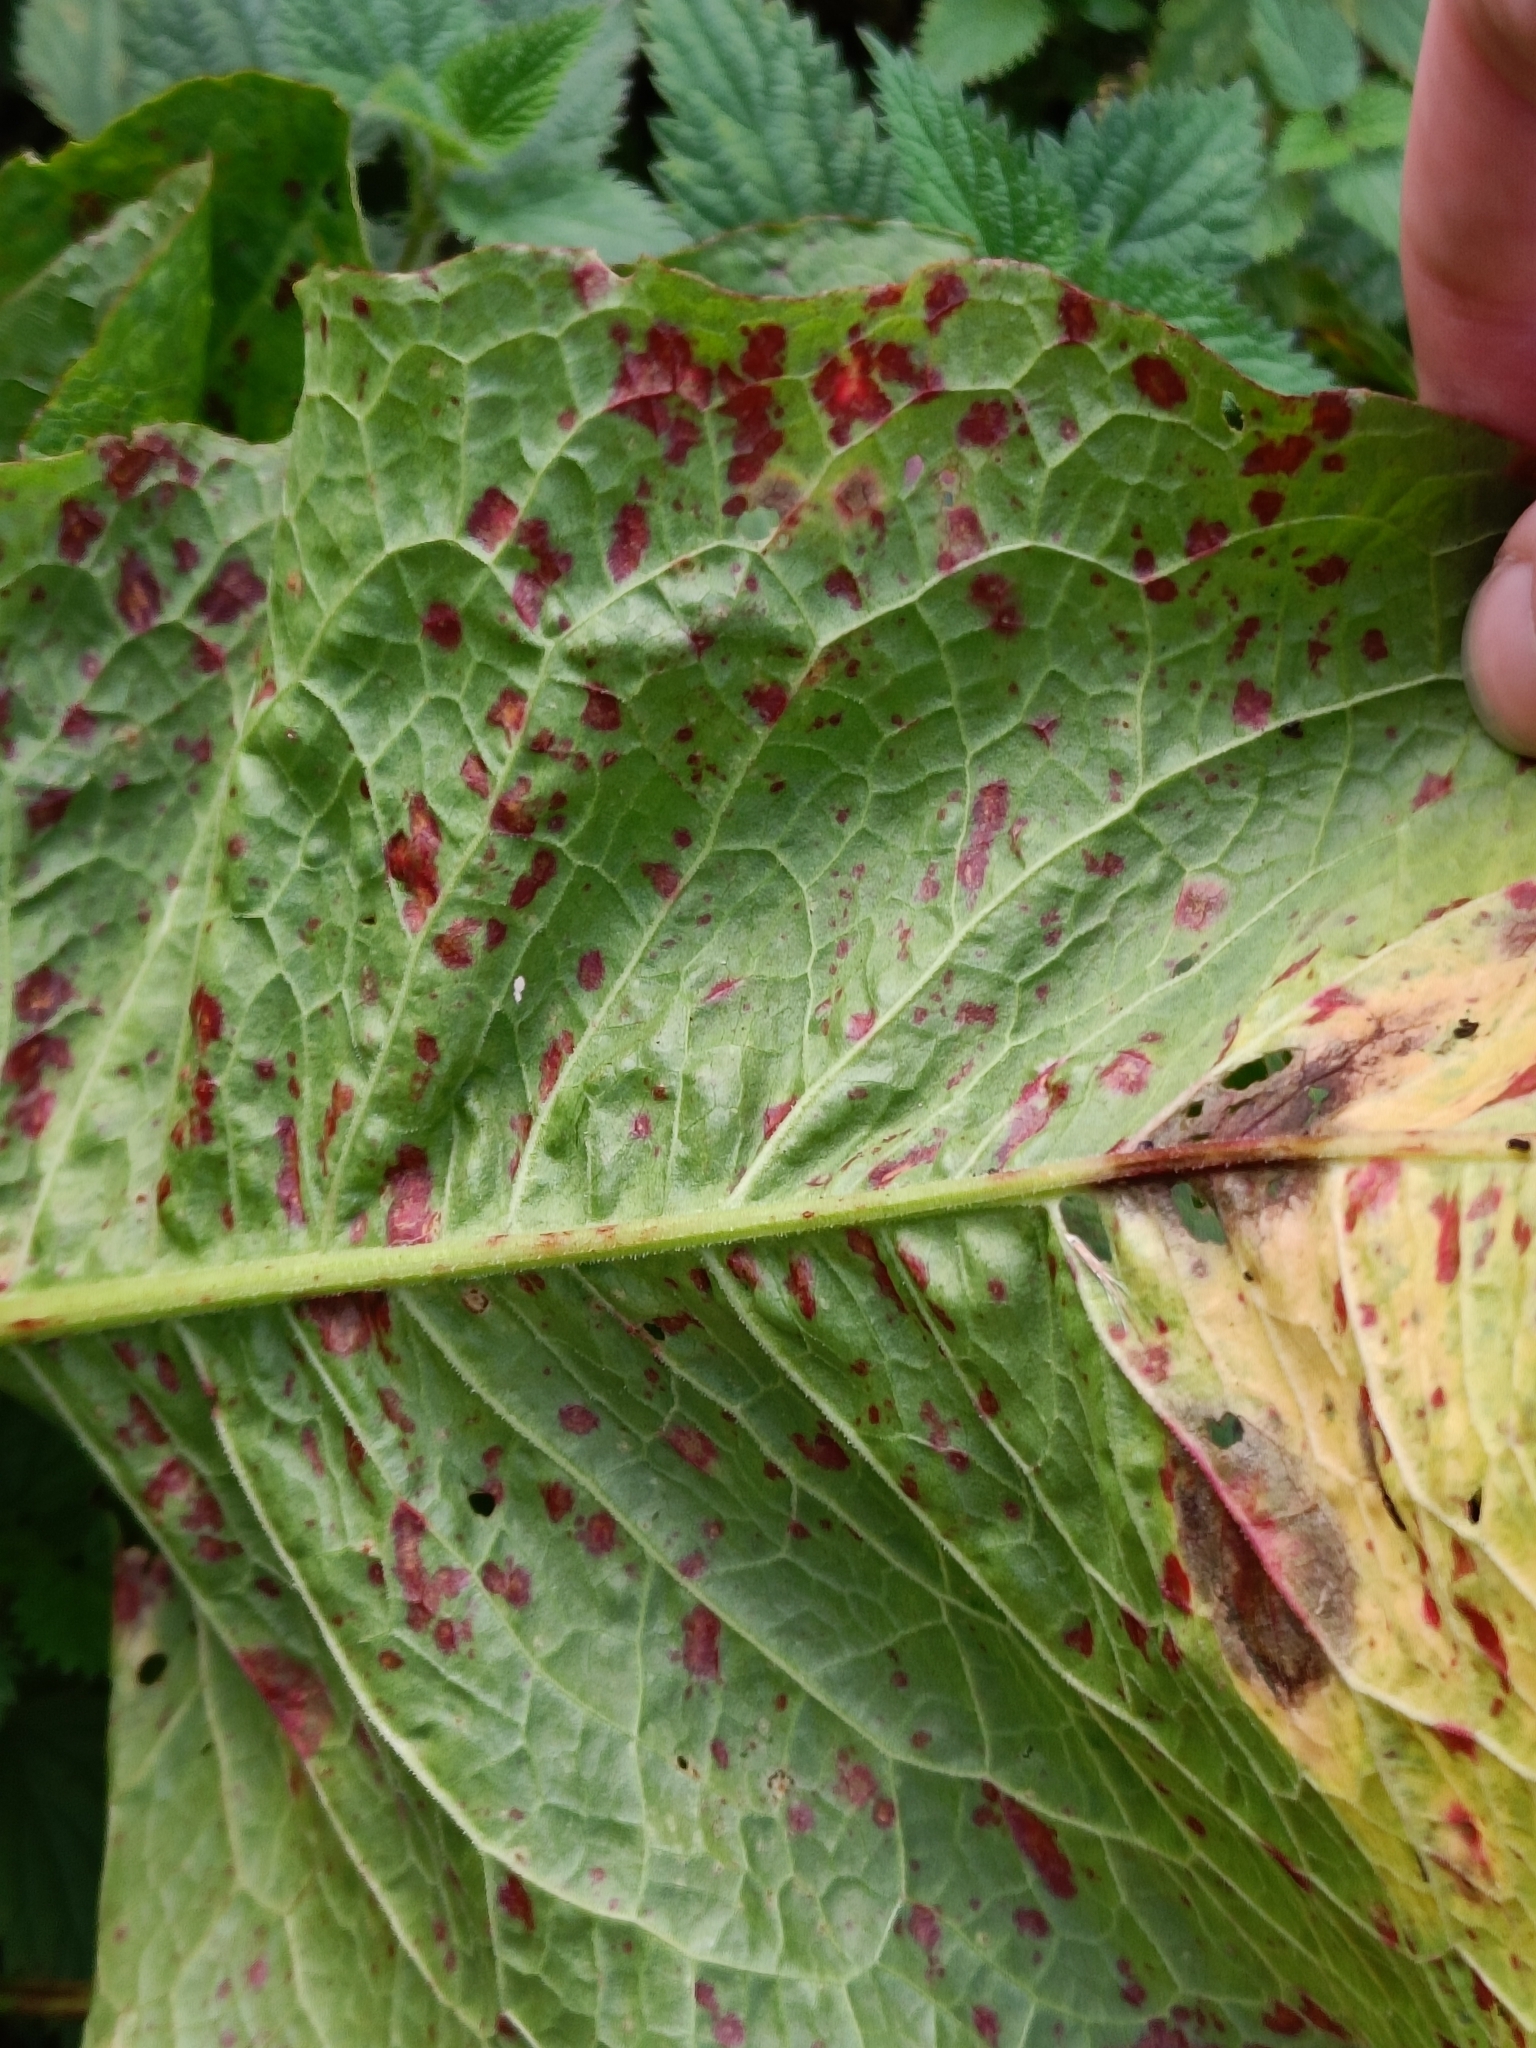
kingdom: Fungi
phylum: Ascomycota
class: Dothideomycetes
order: Mycosphaerellales
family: Mycosphaerellaceae
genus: Ramularia
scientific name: Ramularia rubella
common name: Red dock spot
